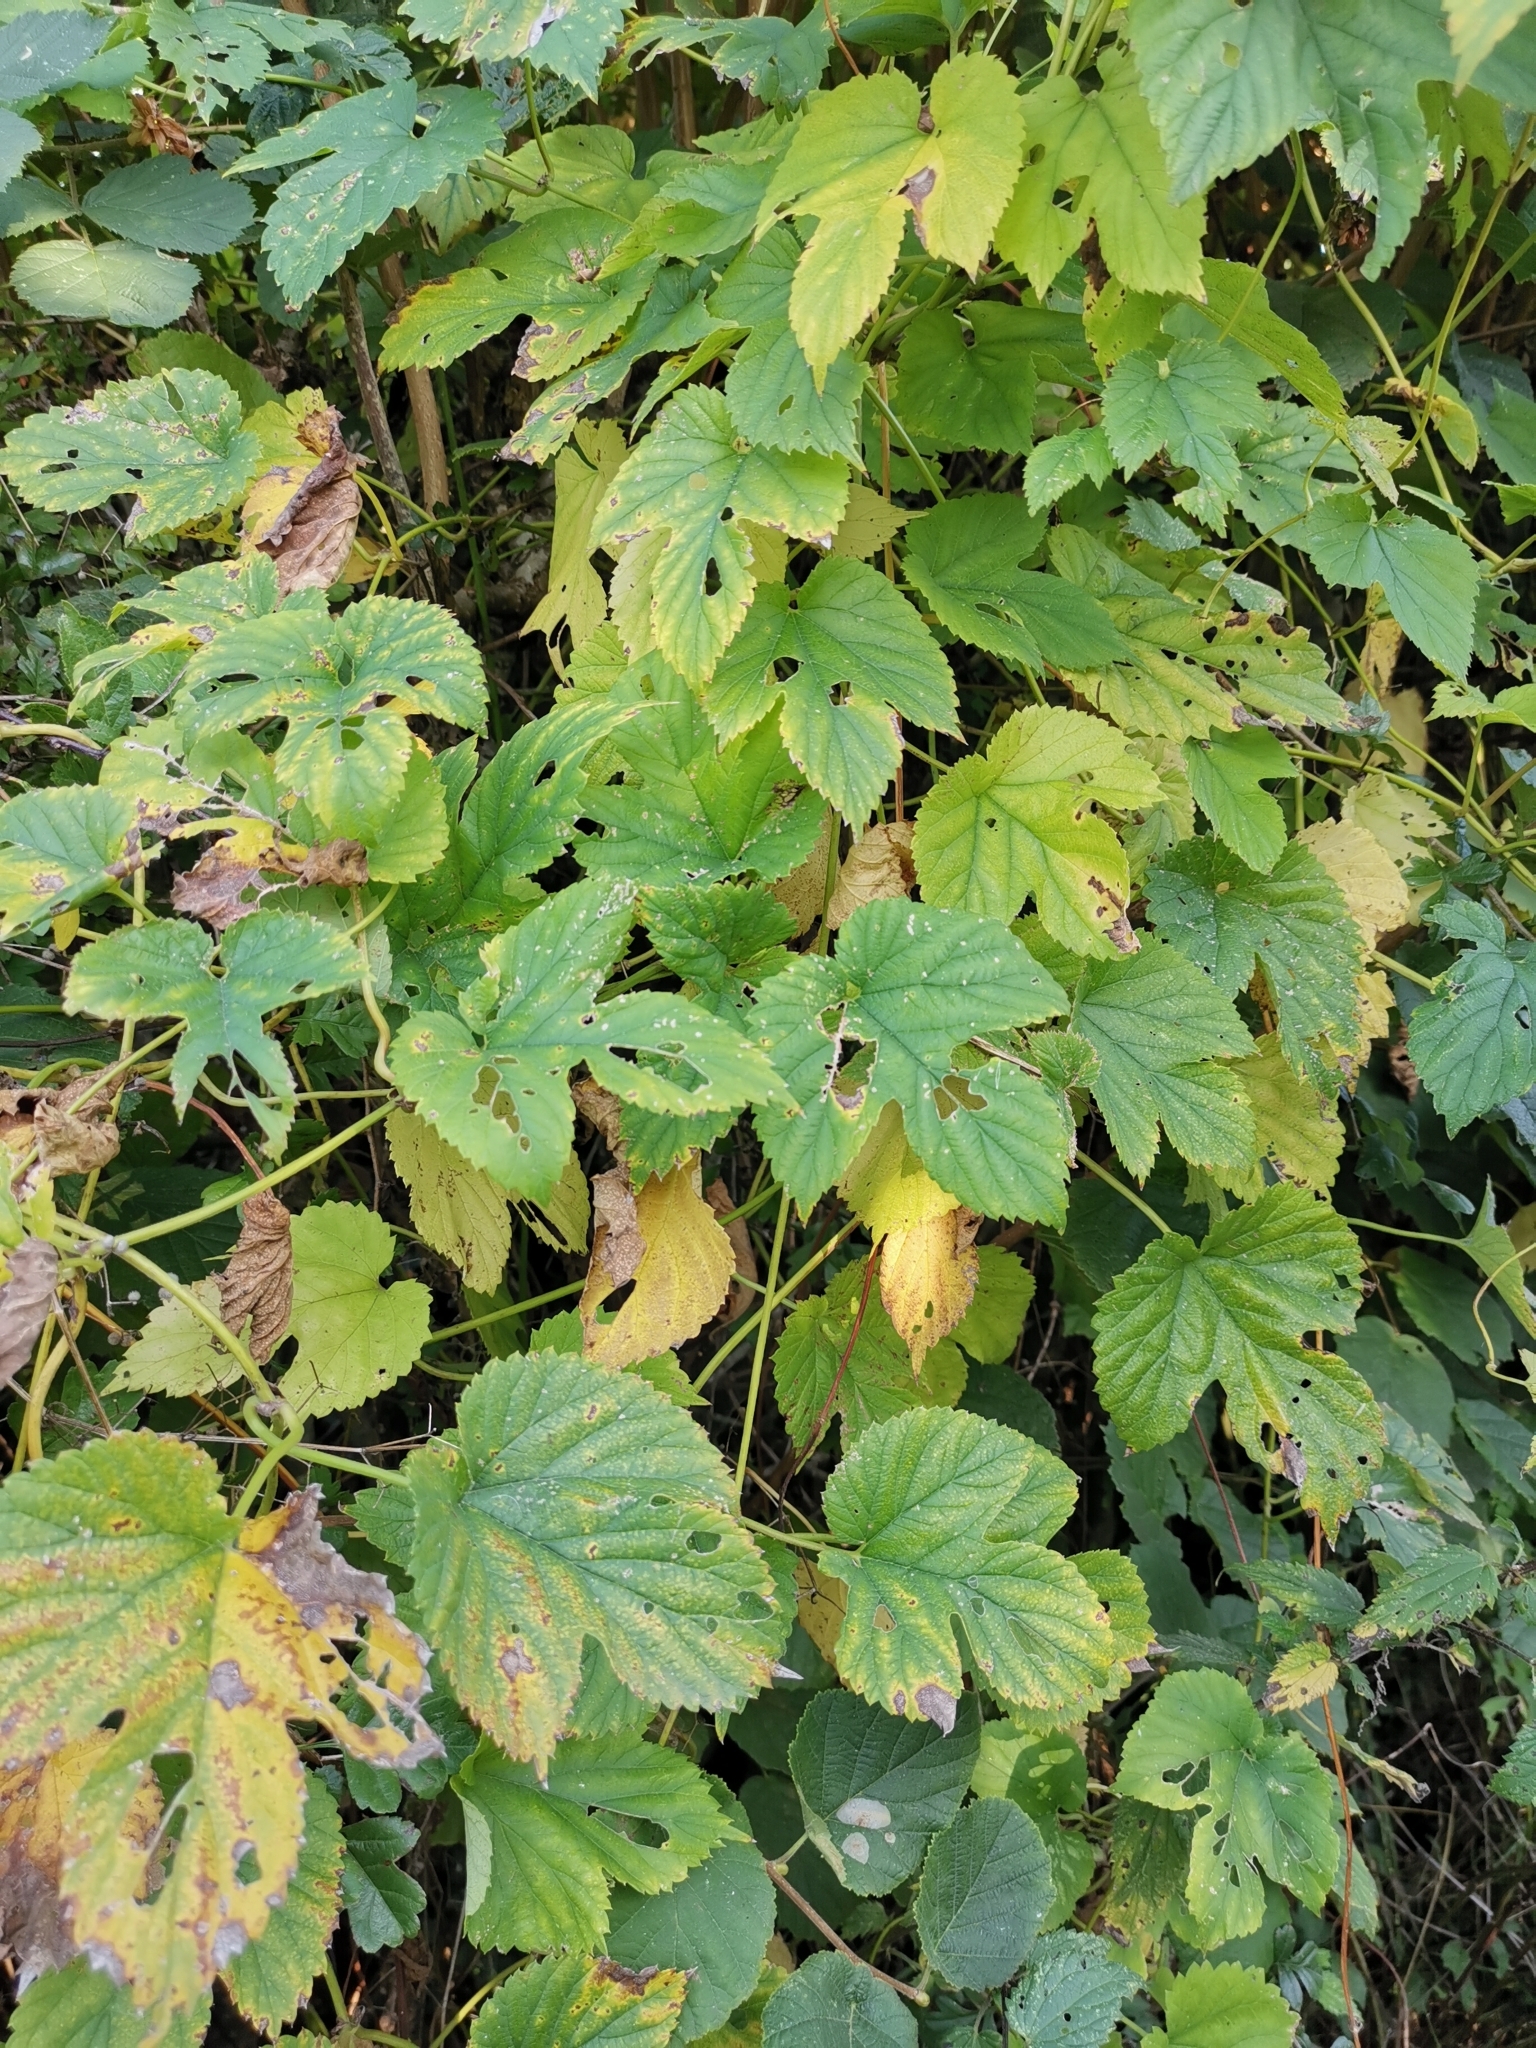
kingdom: Plantae
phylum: Tracheophyta
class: Magnoliopsida
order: Rosales
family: Cannabaceae
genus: Humulus
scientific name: Humulus lupulus
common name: Hop
